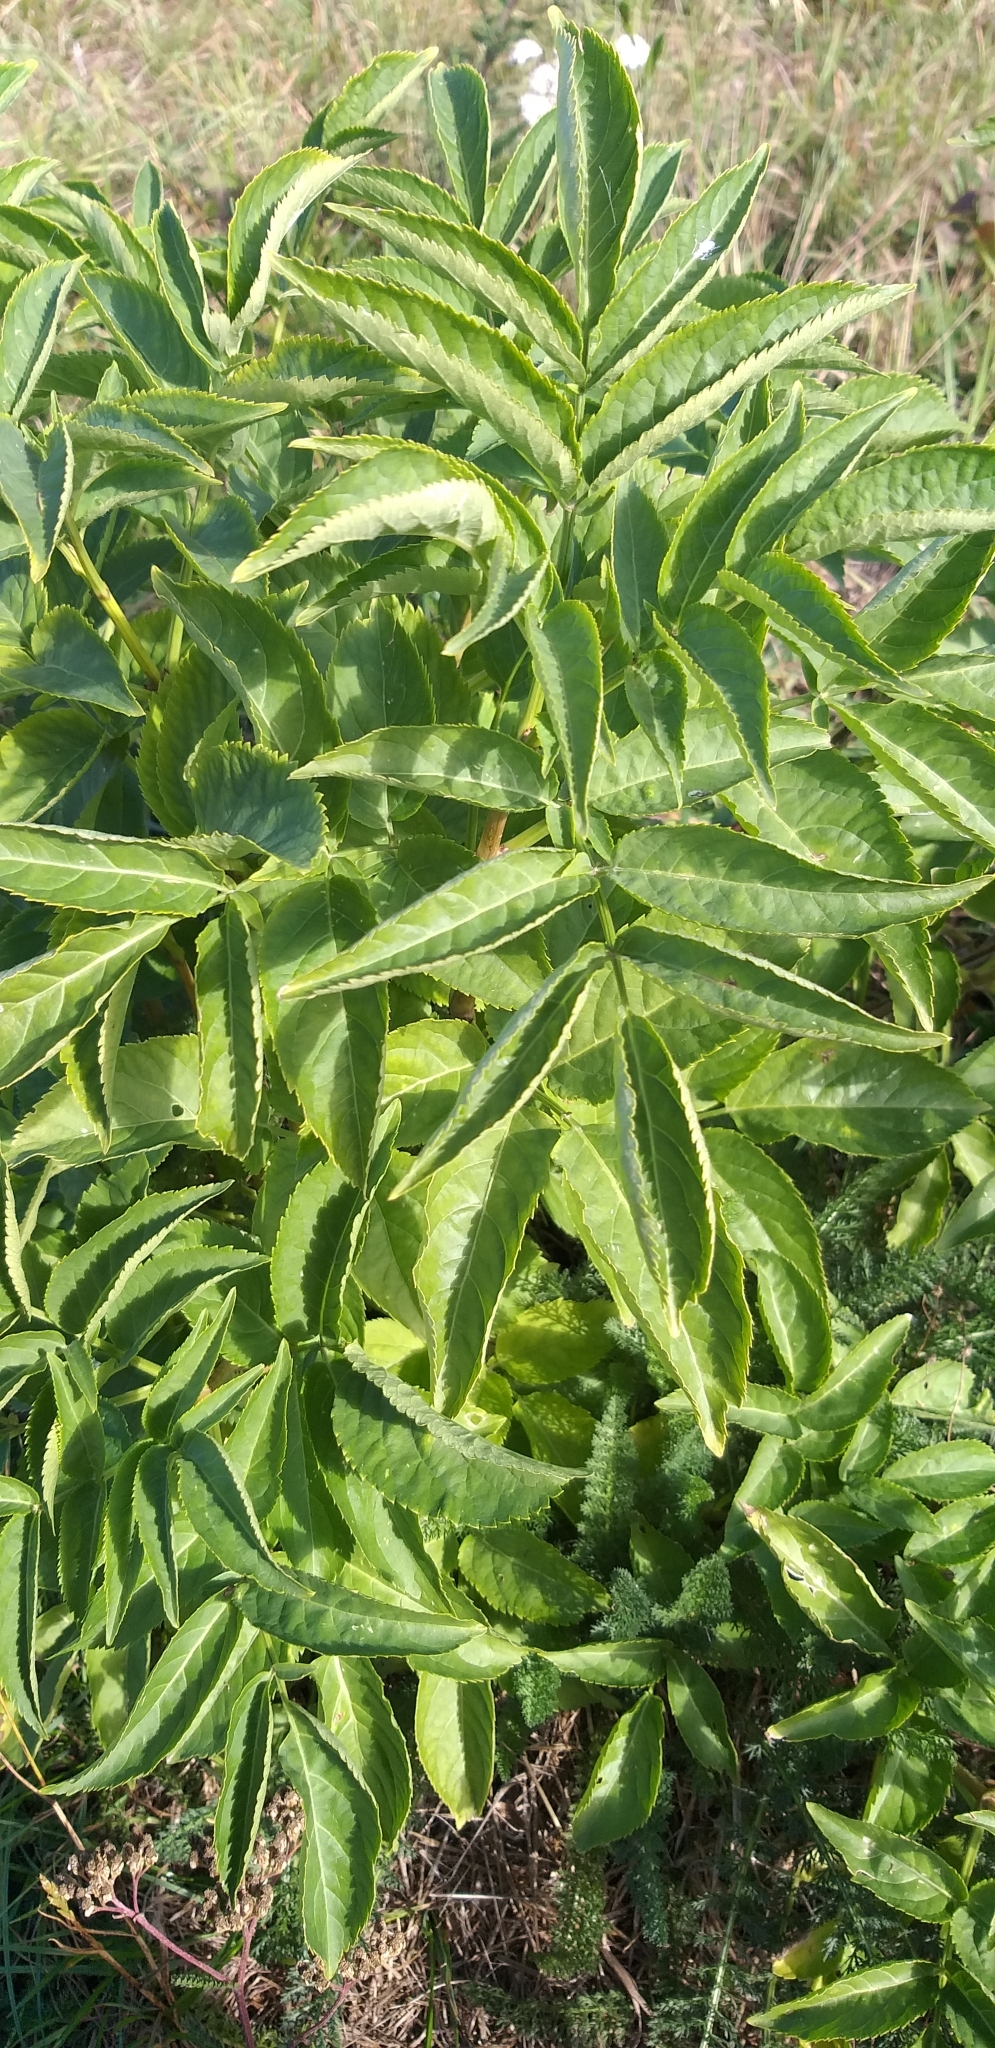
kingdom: Plantae
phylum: Tracheophyta
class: Magnoliopsida
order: Dipsacales
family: Viburnaceae
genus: Sambucus
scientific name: Sambucus nigra
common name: Elder
